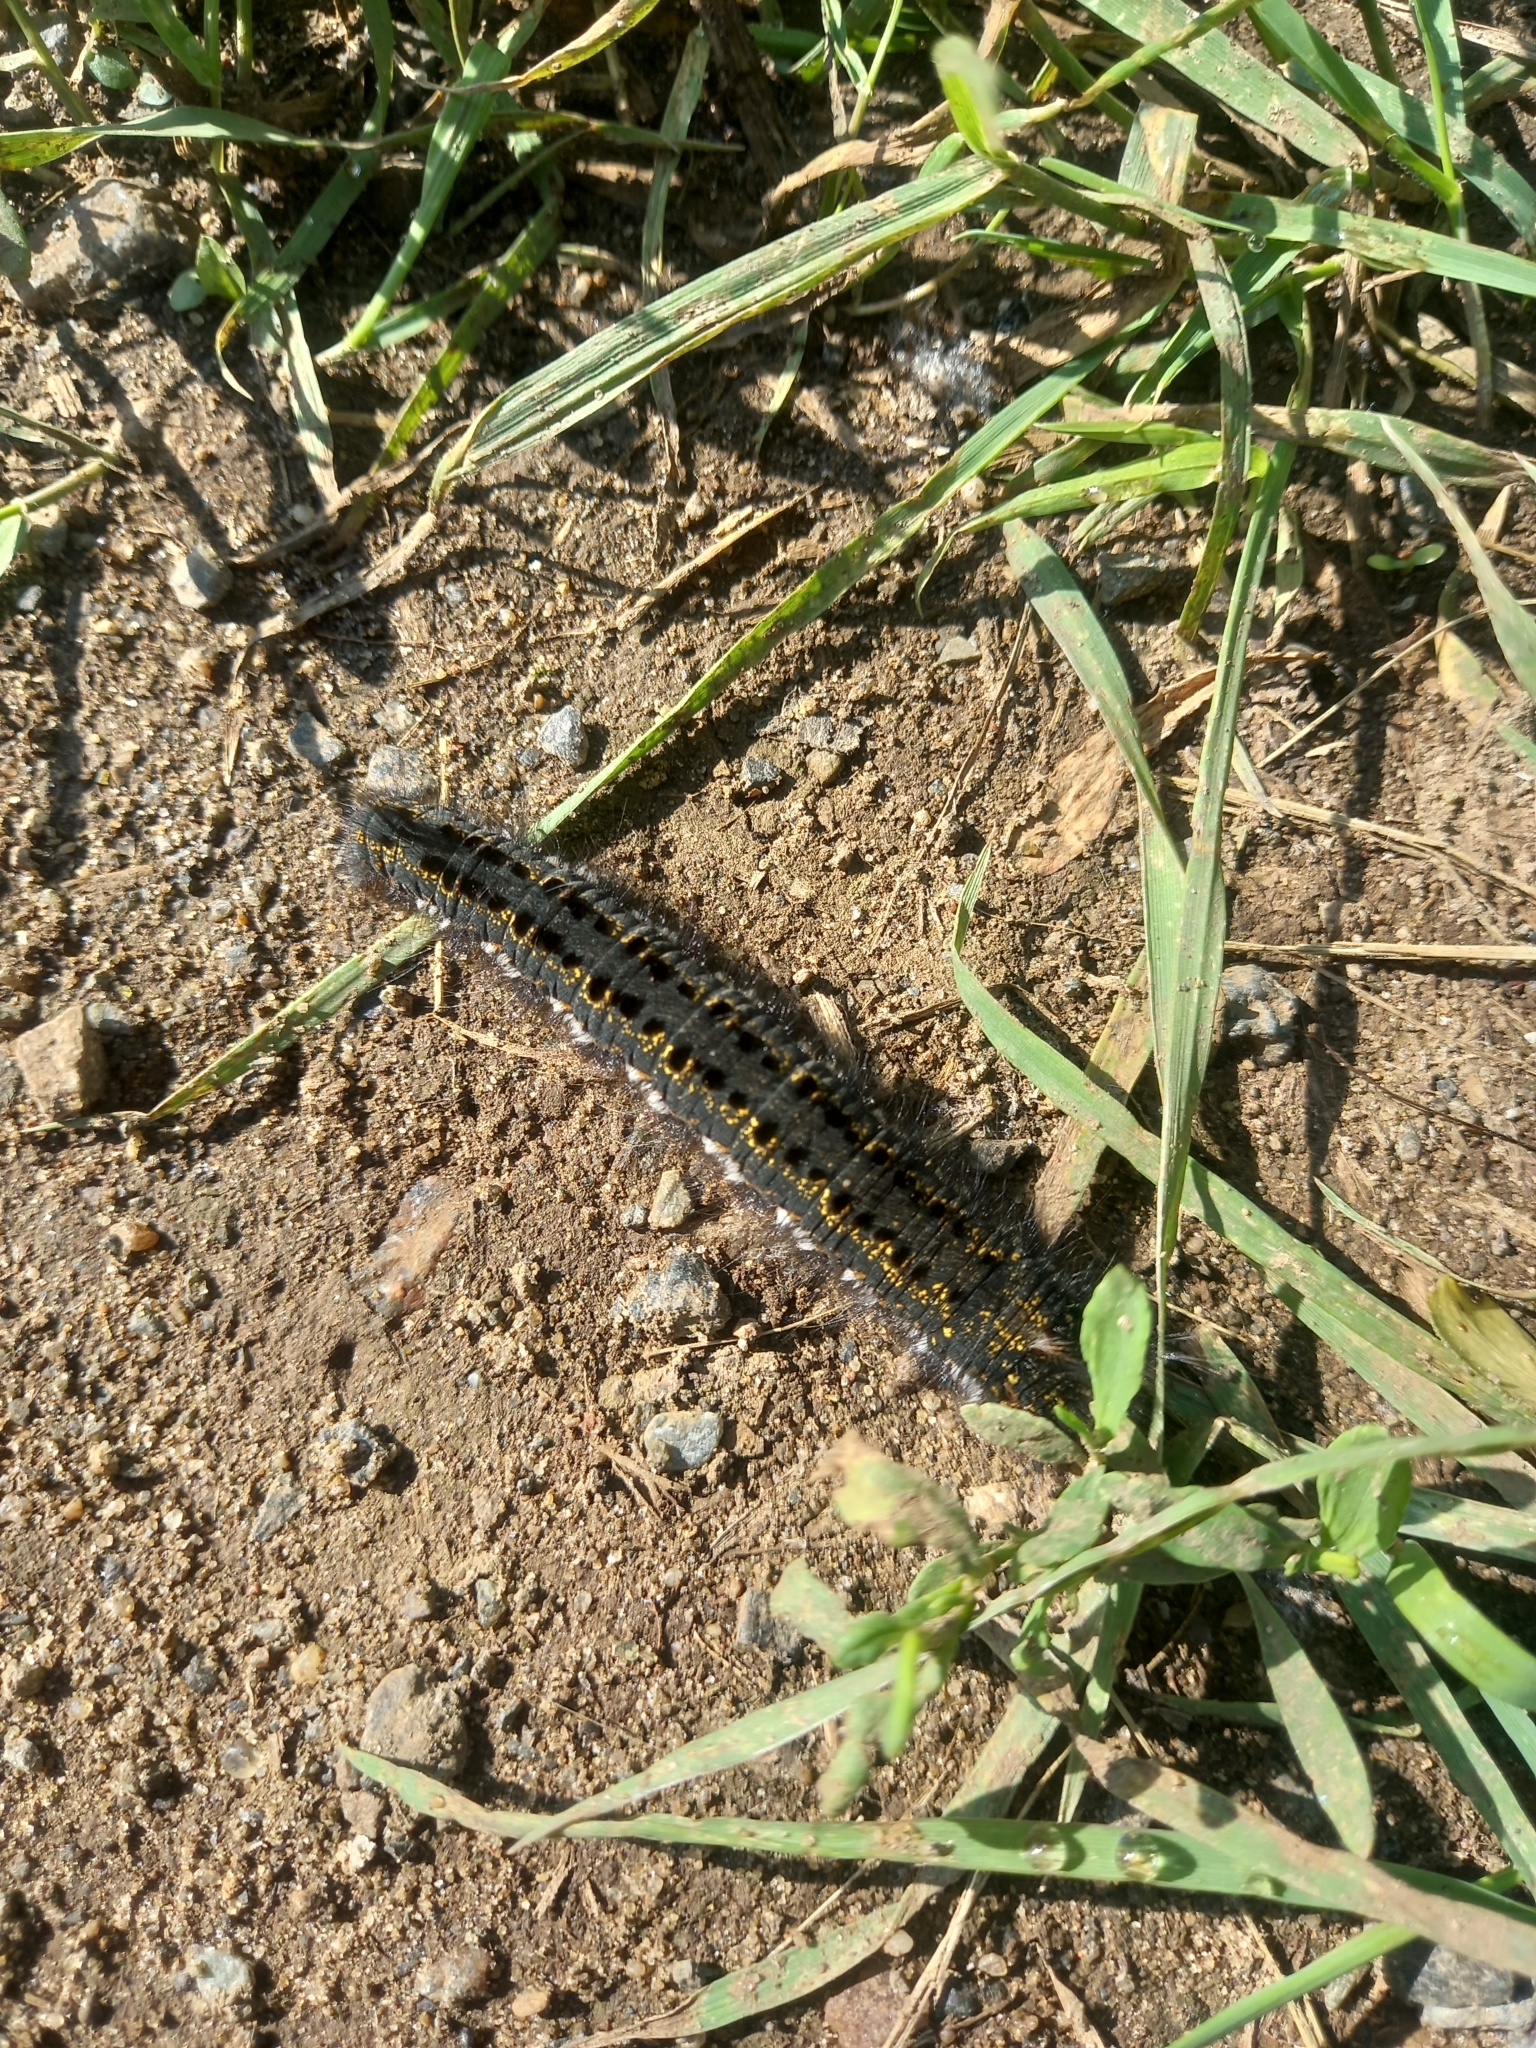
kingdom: Animalia
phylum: Arthropoda
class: Insecta
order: Lepidoptera
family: Lasiocampidae
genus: Euthrix
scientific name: Euthrix potatoria
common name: Drinker
